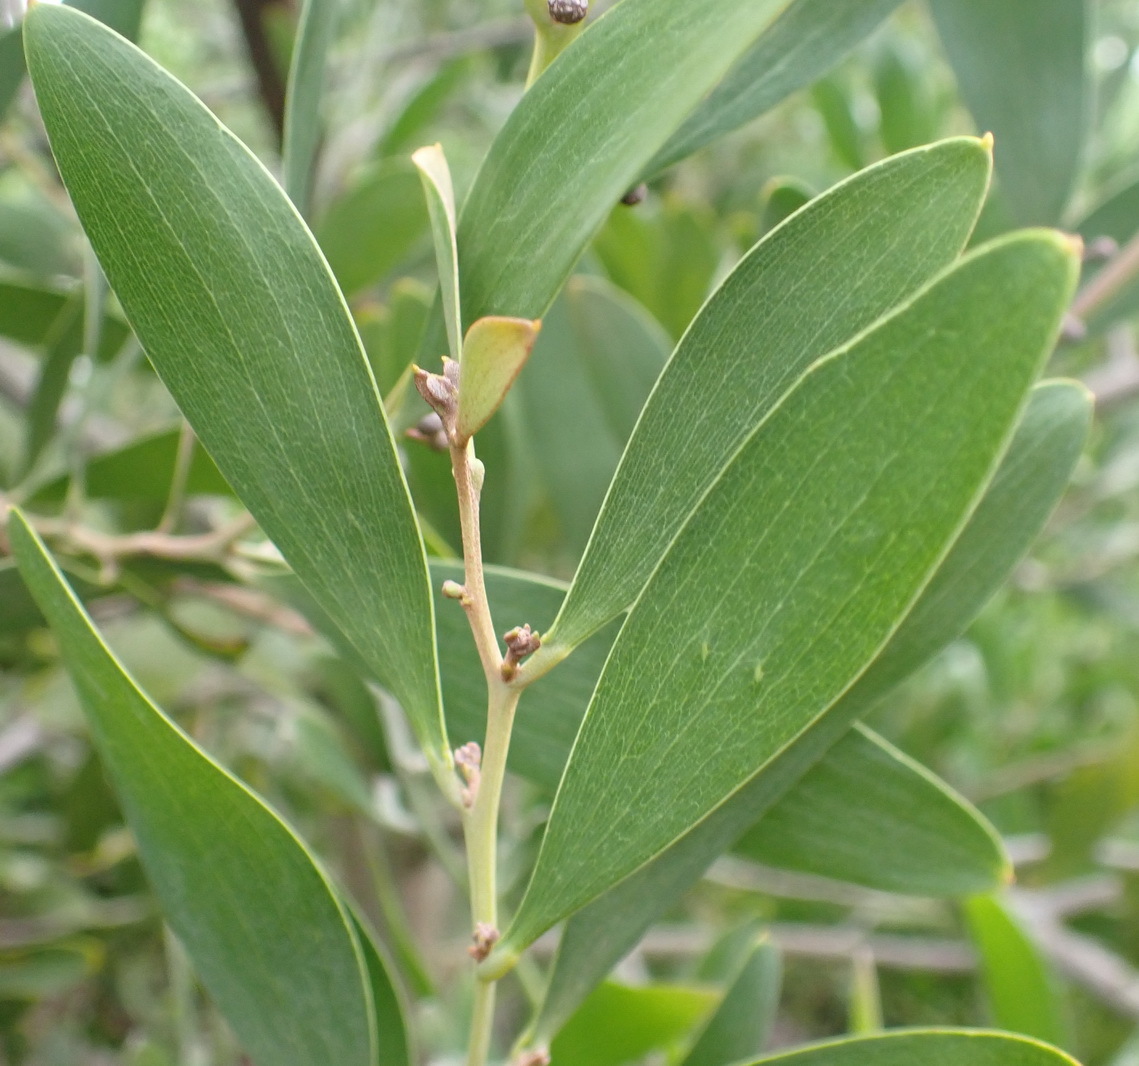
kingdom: Plantae
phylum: Tracheophyta
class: Magnoliopsida
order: Fabales
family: Fabaceae
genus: Acacia
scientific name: Acacia melanoxylon
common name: Blackwood
